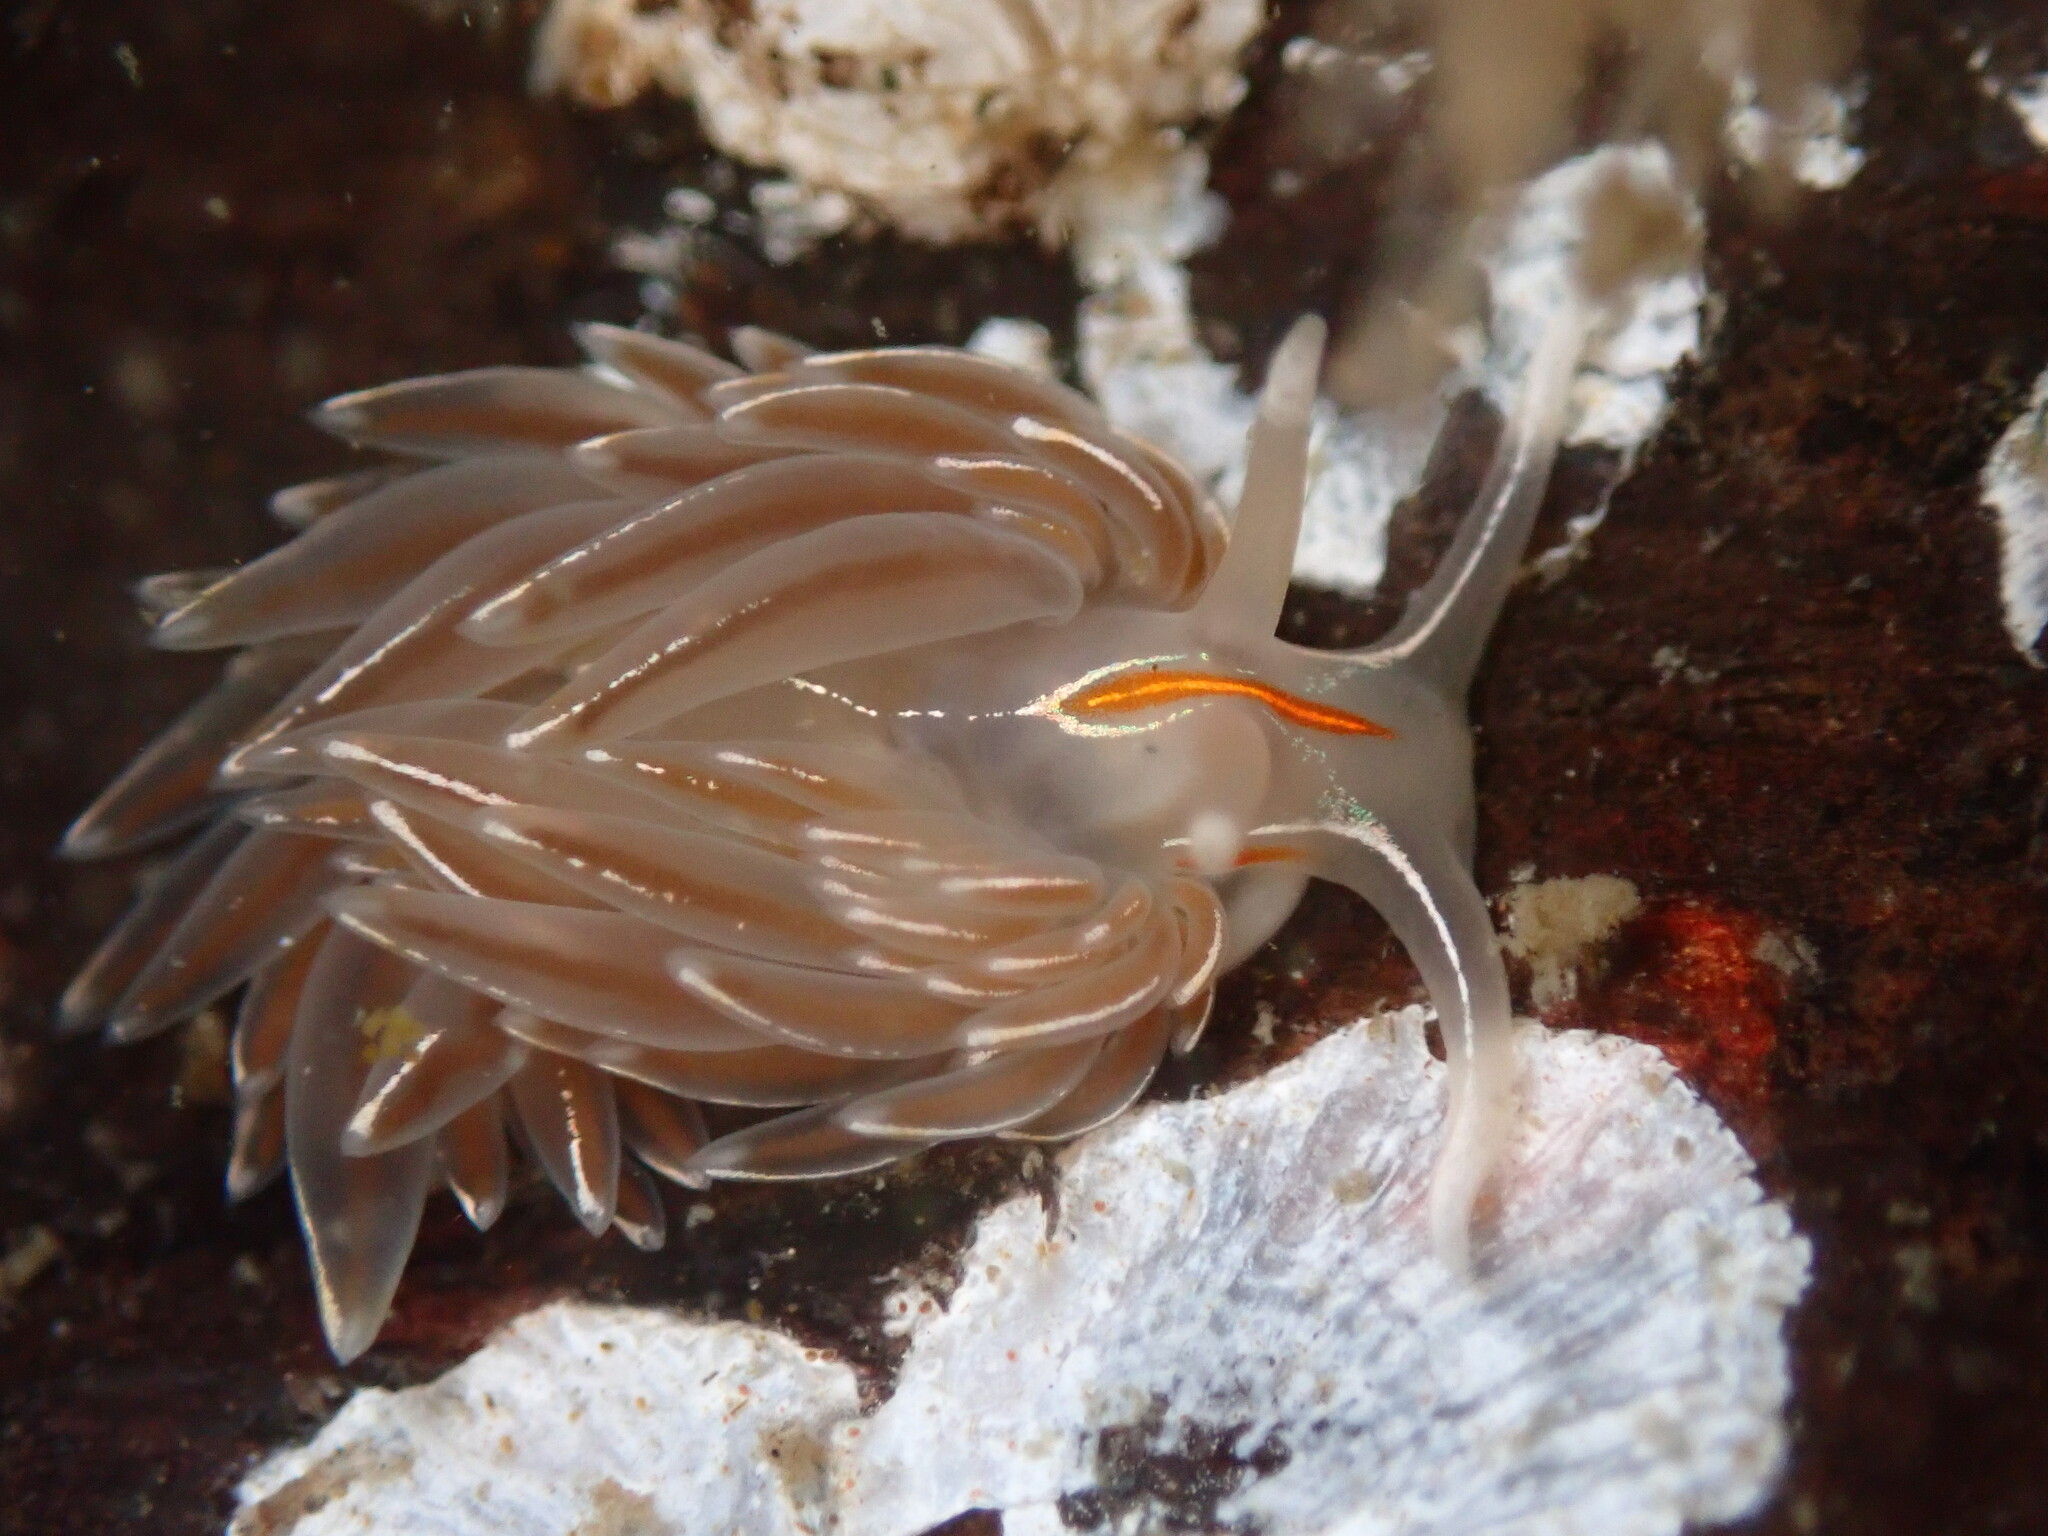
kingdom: Animalia
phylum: Mollusca
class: Gastropoda
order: Nudibranchia
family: Myrrhinidae
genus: Hermissenda
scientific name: Hermissenda crassicornis
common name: Hermissenda
